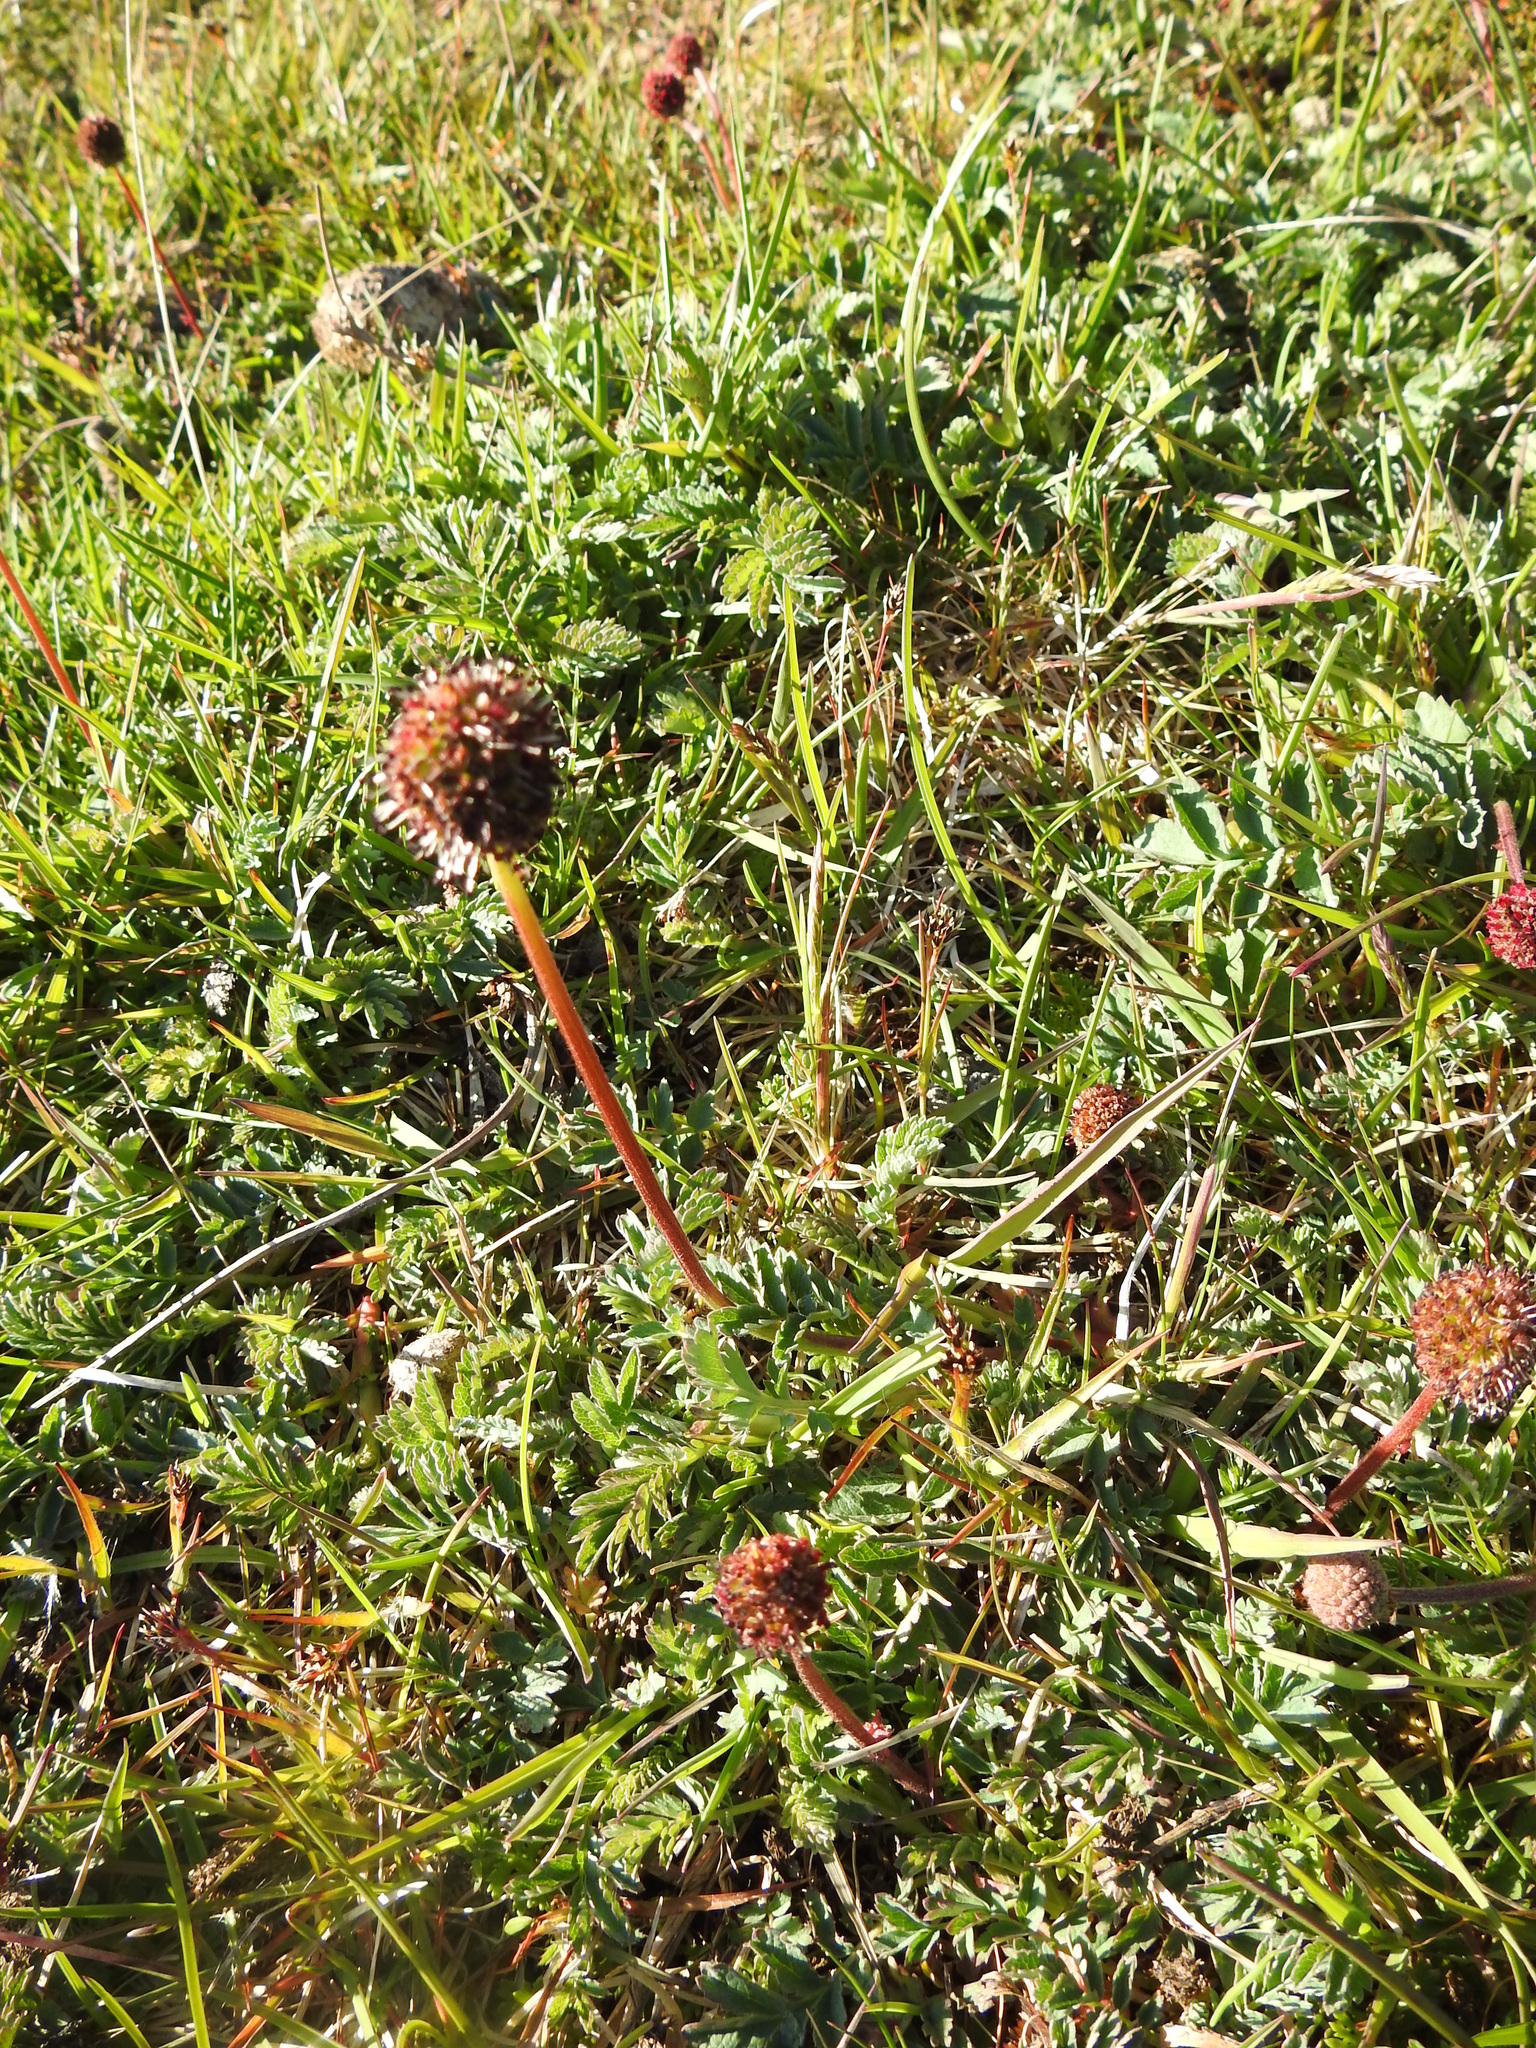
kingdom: Plantae
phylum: Tracheophyta
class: Magnoliopsida
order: Rosales
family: Rosaceae
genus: Acaena
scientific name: Acaena magellanica
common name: New zealand burr
